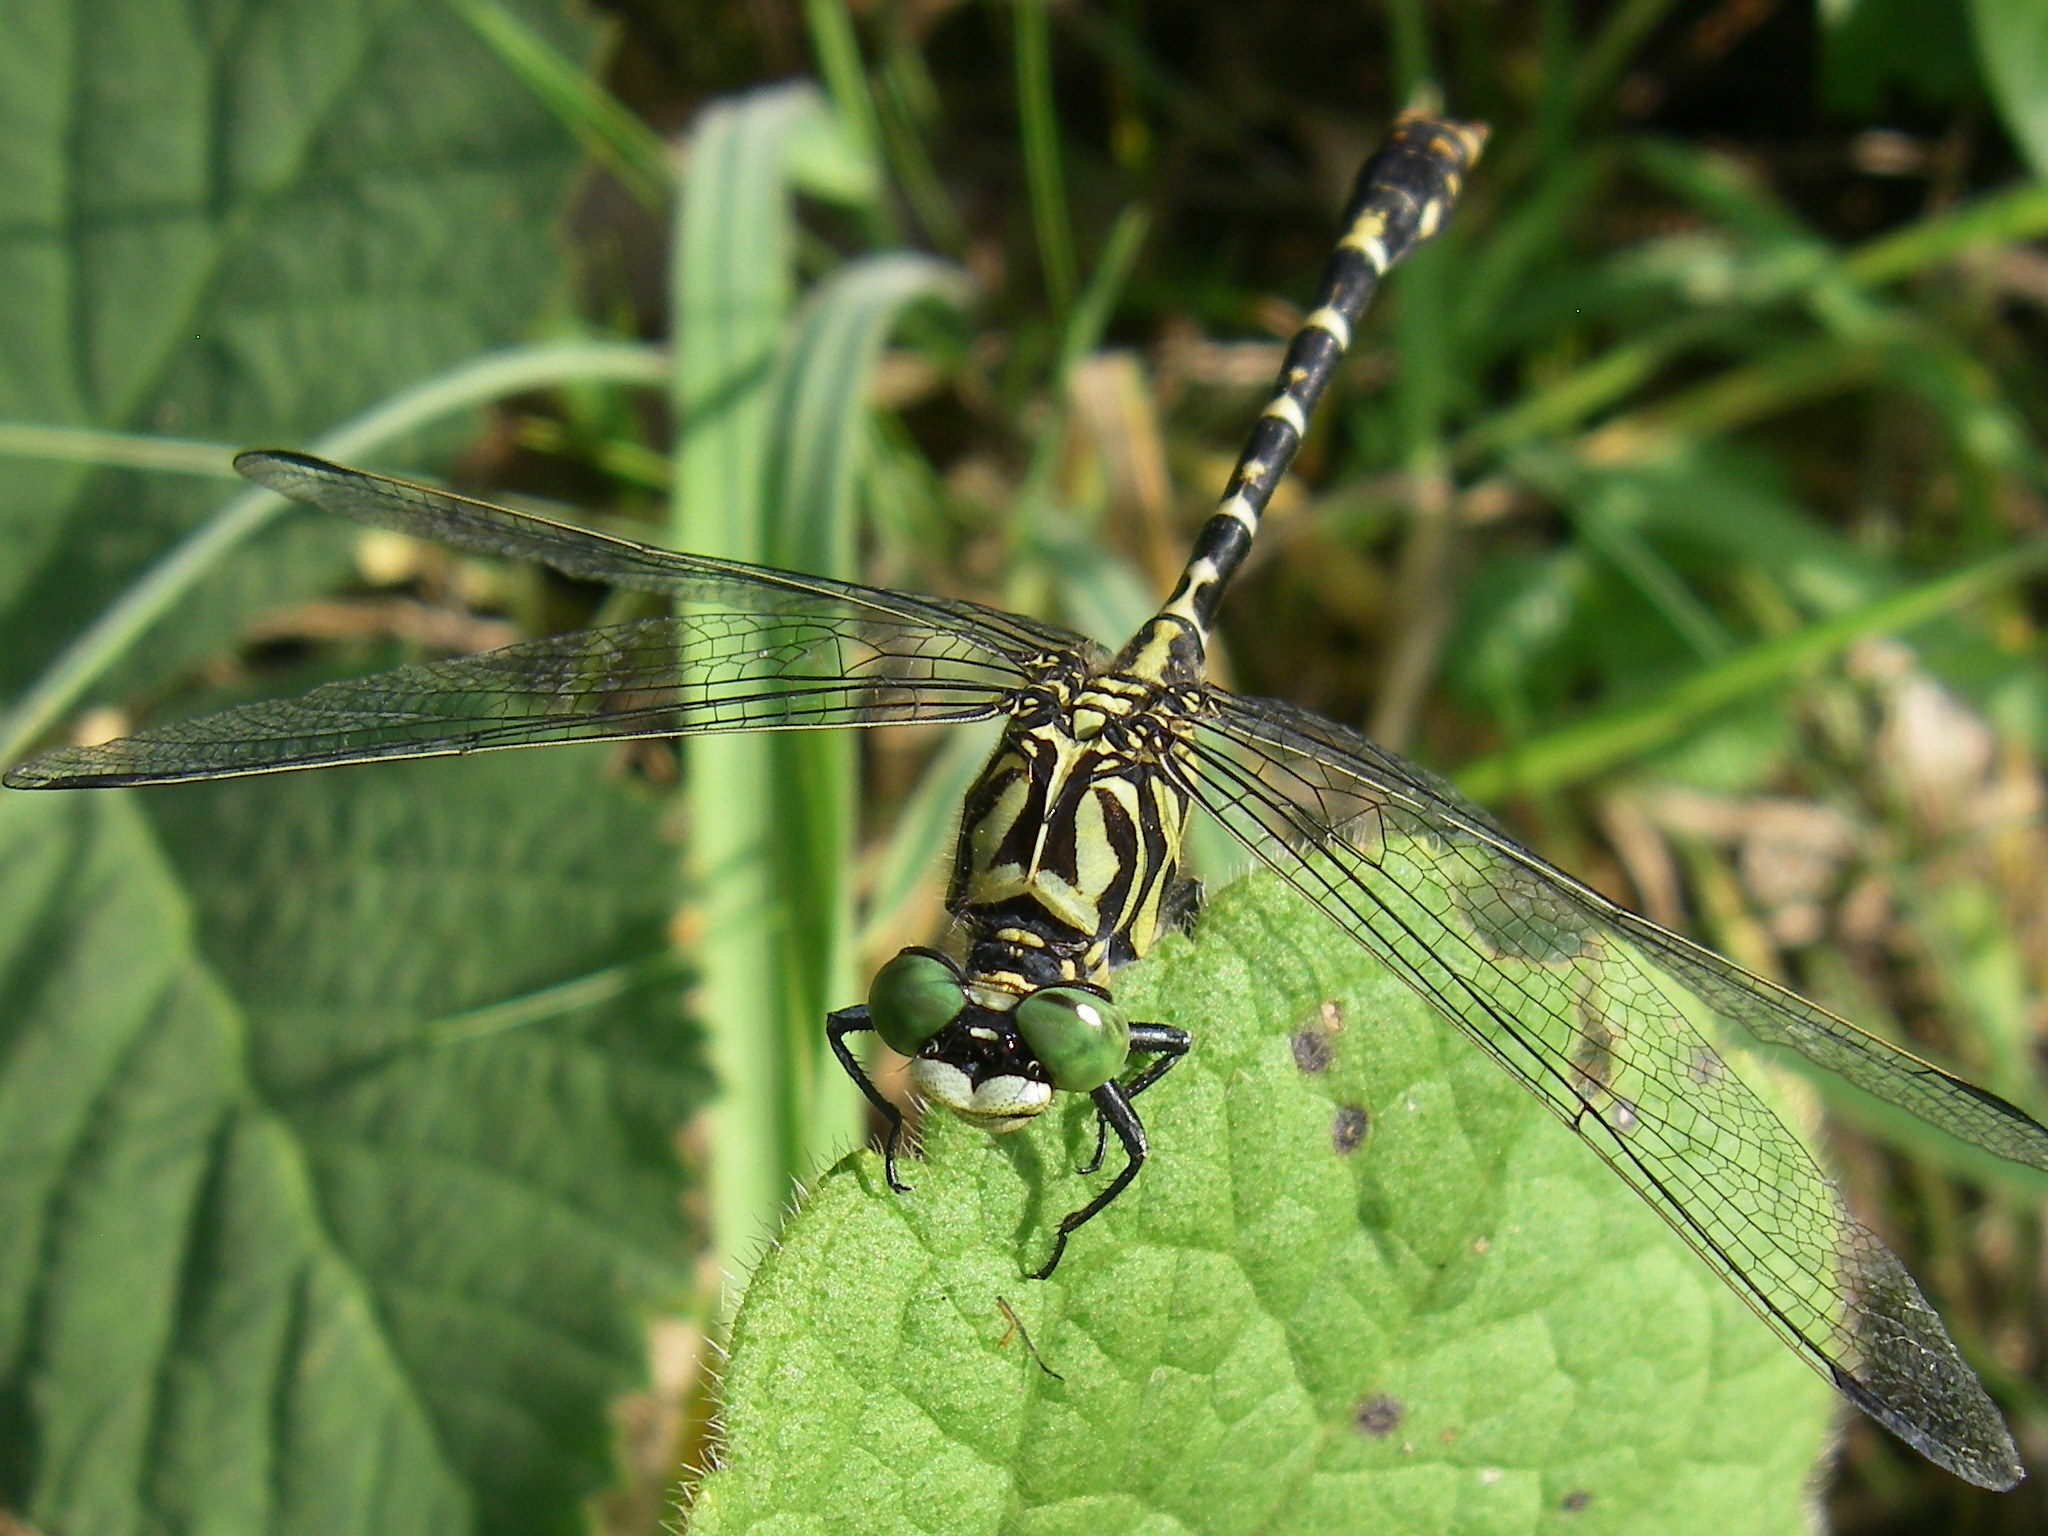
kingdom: Animalia
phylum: Arthropoda
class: Insecta
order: Odonata
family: Gomphidae
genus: Onychogomphus
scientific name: Onychogomphus forcipatus
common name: Small pincertail
